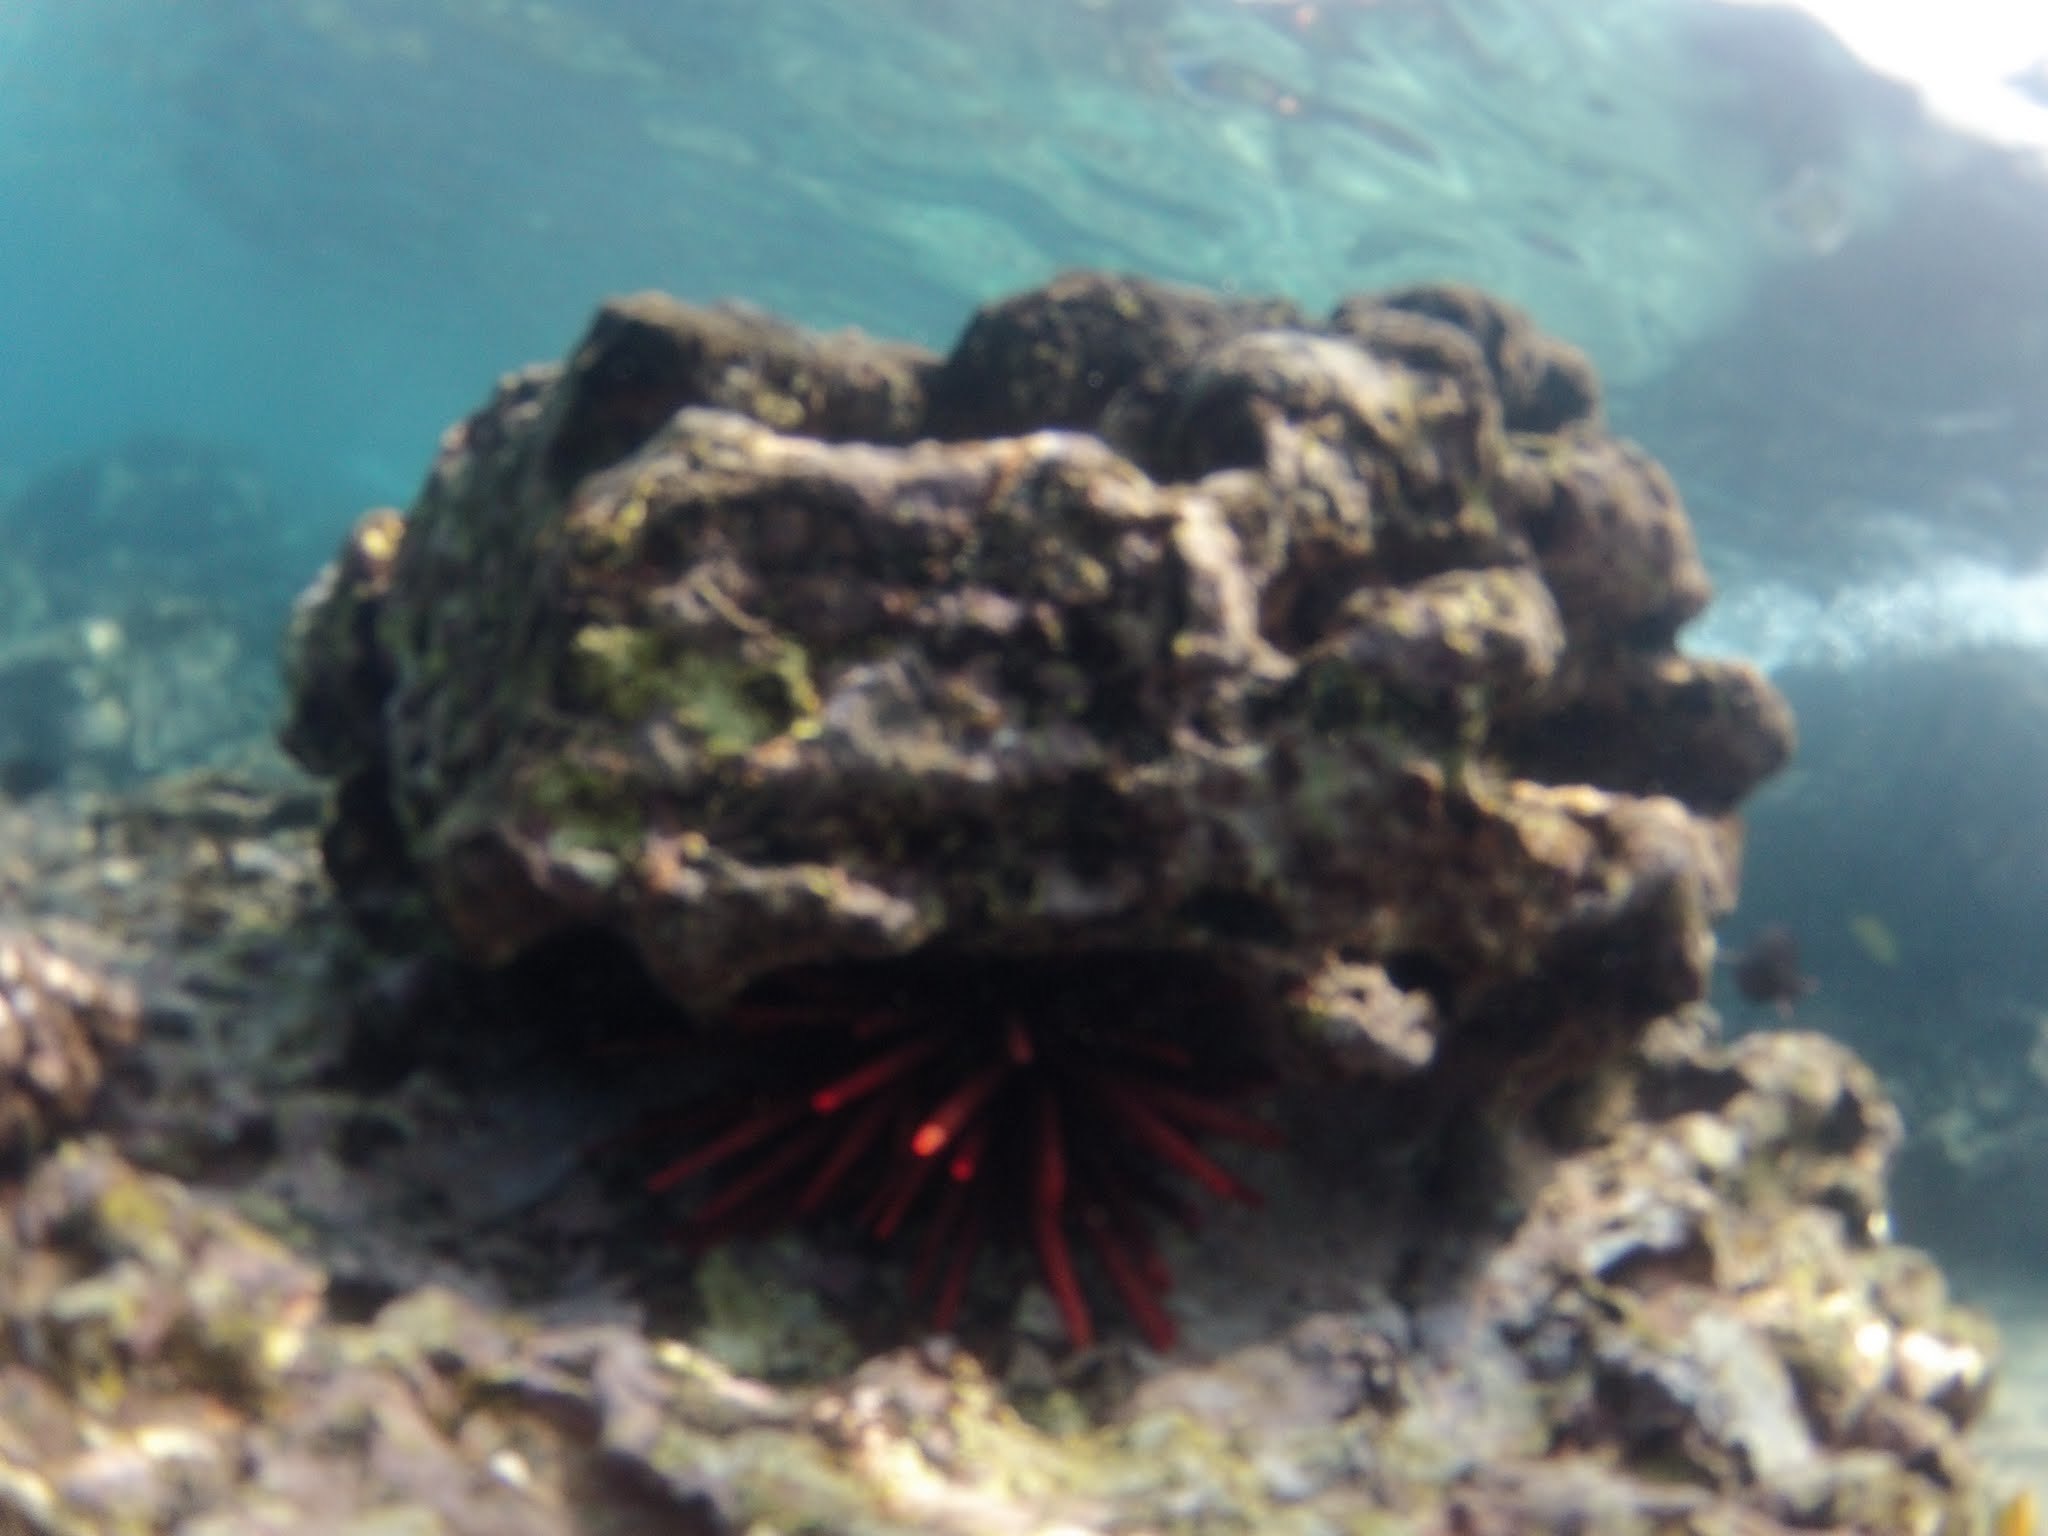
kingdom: Animalia
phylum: Echinodermata
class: Echinoidea
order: Camarodonta
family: Echinometridae
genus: Heterocentrotus
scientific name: Heterocentrotus mamillatus
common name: Slate pencil urchin
